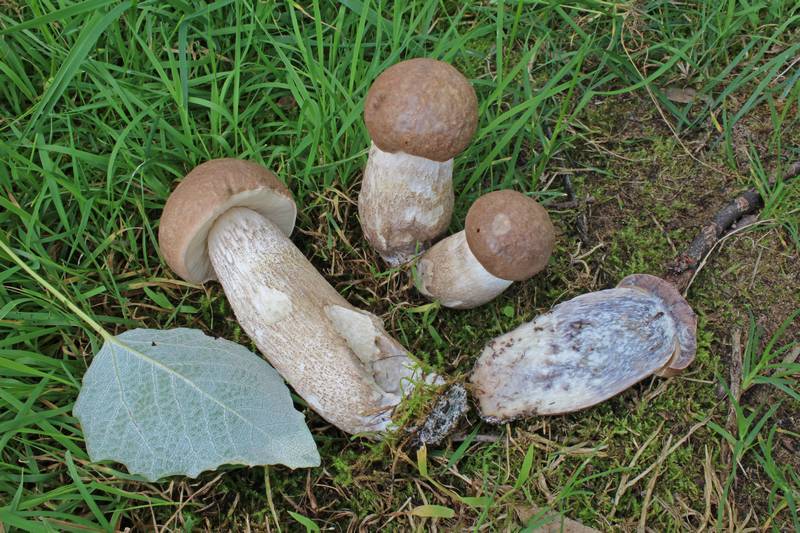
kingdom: Fungi
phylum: Basidiomycota
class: Agaricomycetes
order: Boletales
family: Boletaceae
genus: Leccinum
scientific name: Leccinum duriusculum
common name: Slate bolete
